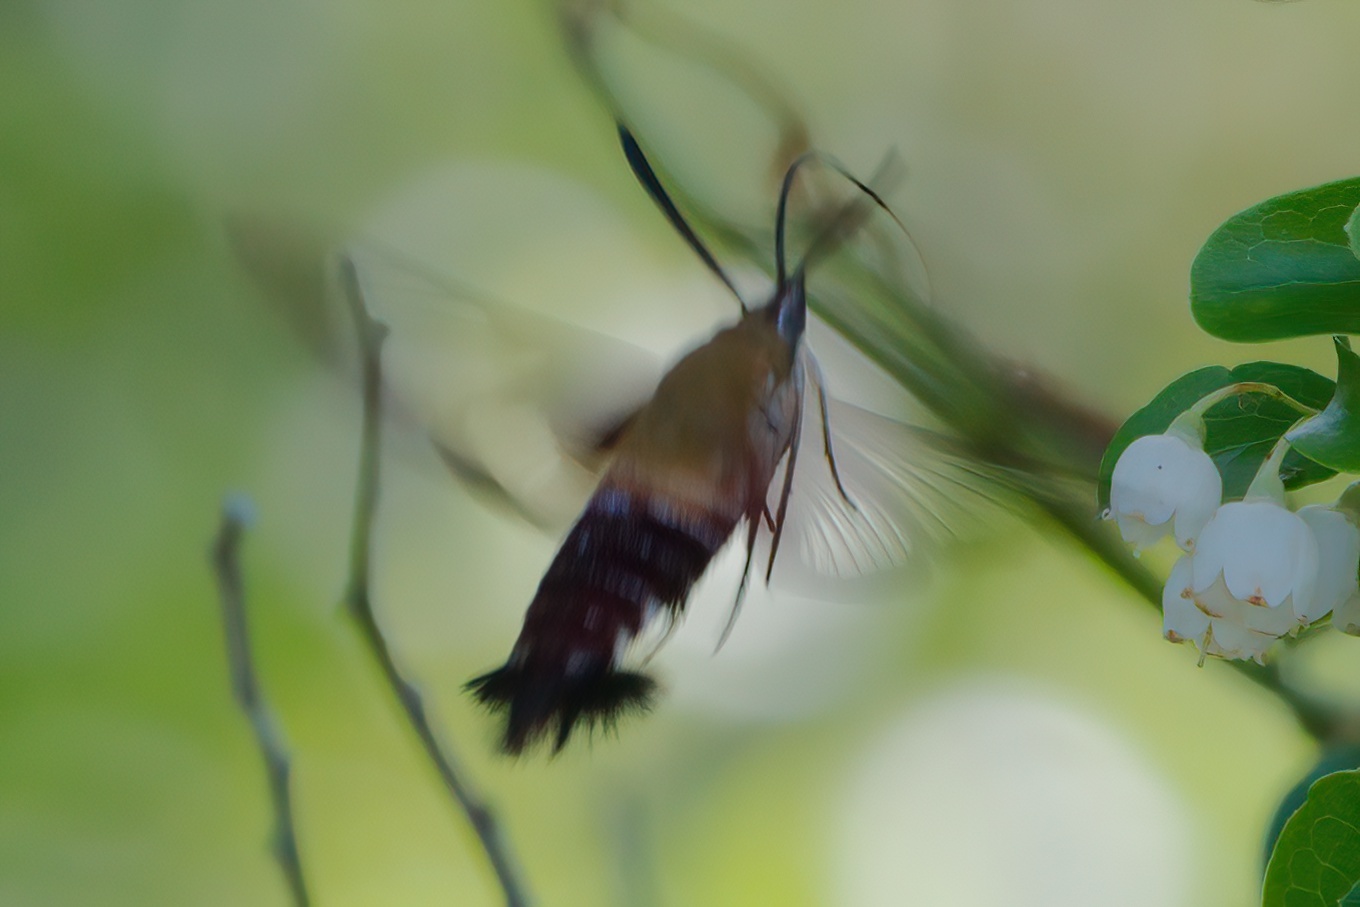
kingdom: Animalia
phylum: Arthropoda
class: Insecta
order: Lepidoptera
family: Sphingidae
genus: Hemaris
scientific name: Hemaris thysbe
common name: Common clear-wing
